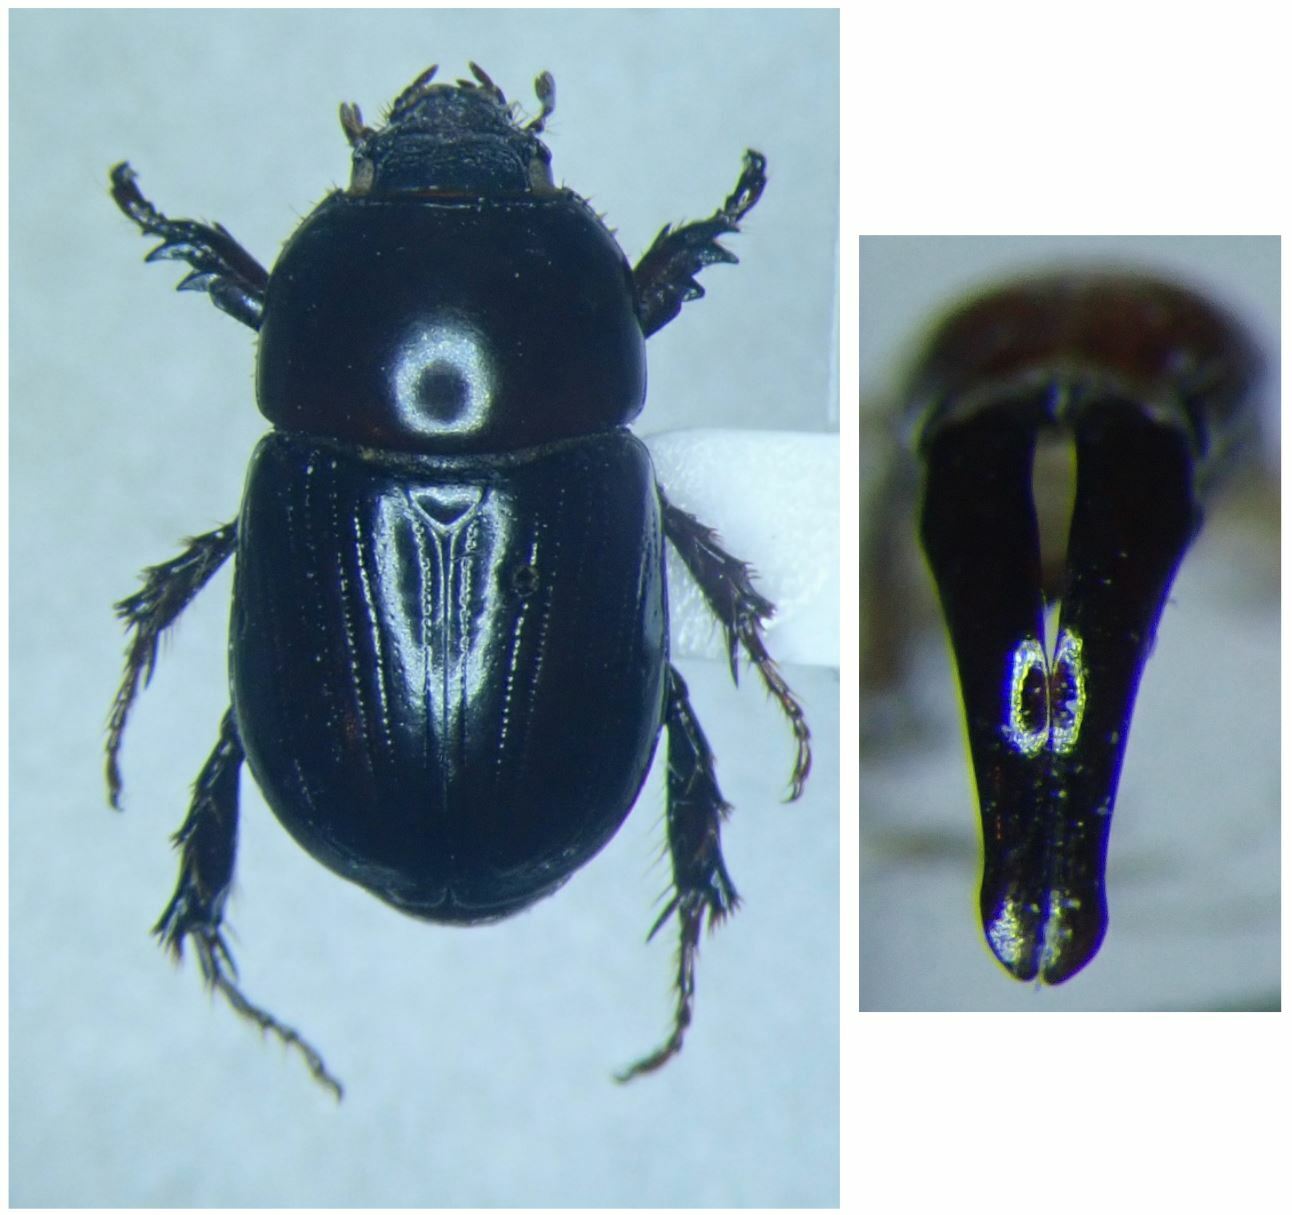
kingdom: Animalia
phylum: Arthropoda
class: Insecta
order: Coleoptera
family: Scarabaeidae
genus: Heteronychus
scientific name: Heteronychus arator
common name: African black beetle
